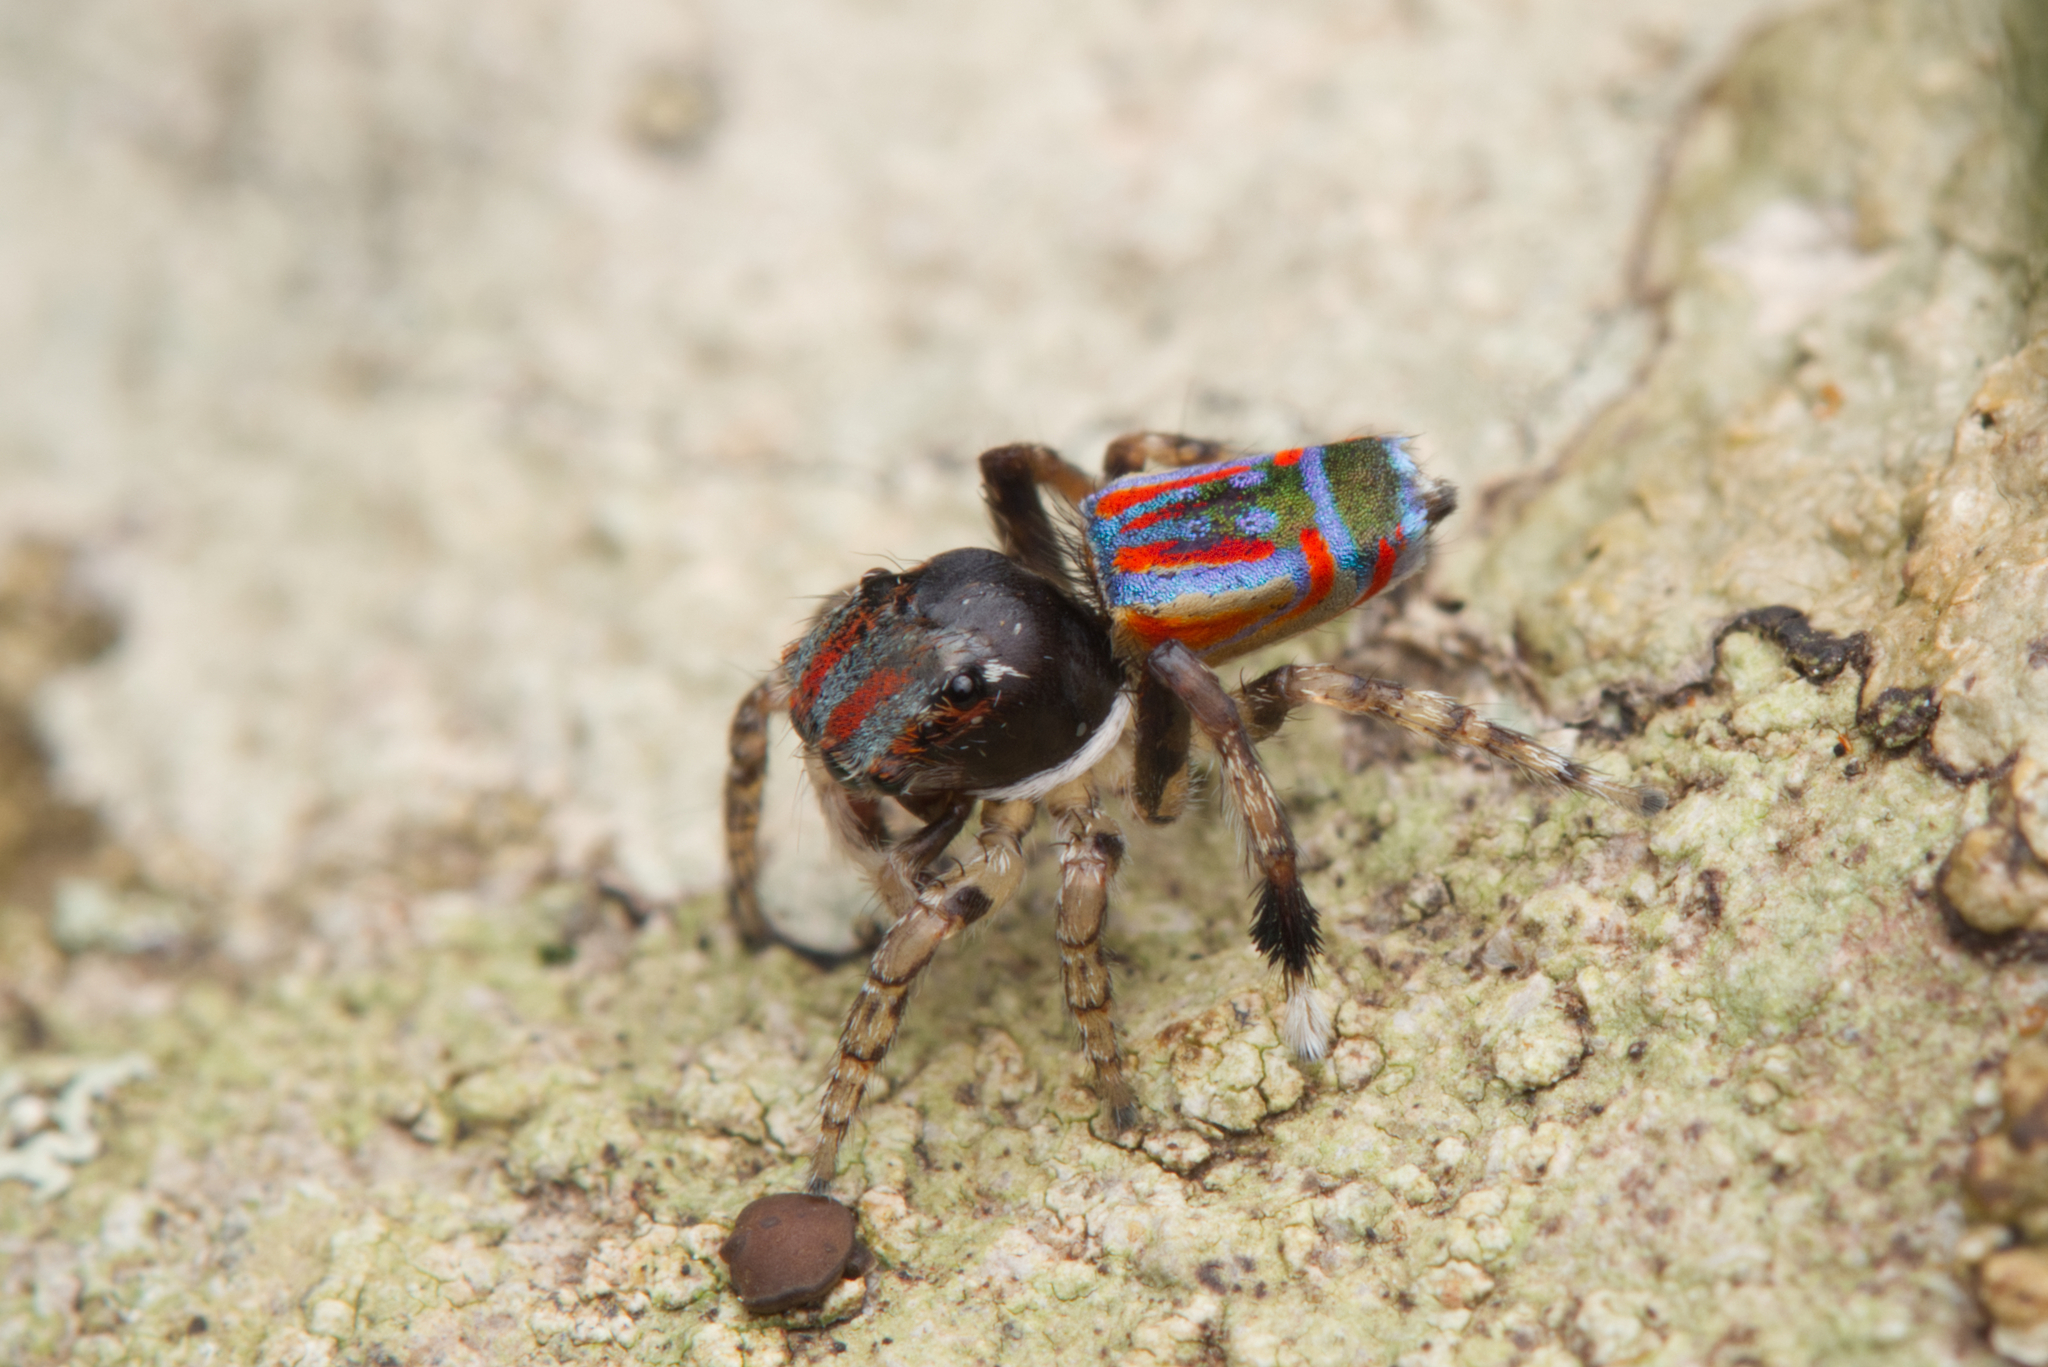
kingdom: Animalia
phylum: Arthropoda
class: Arachnida
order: Araneae
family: Salticidae
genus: Maratus
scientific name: Maratus volans
